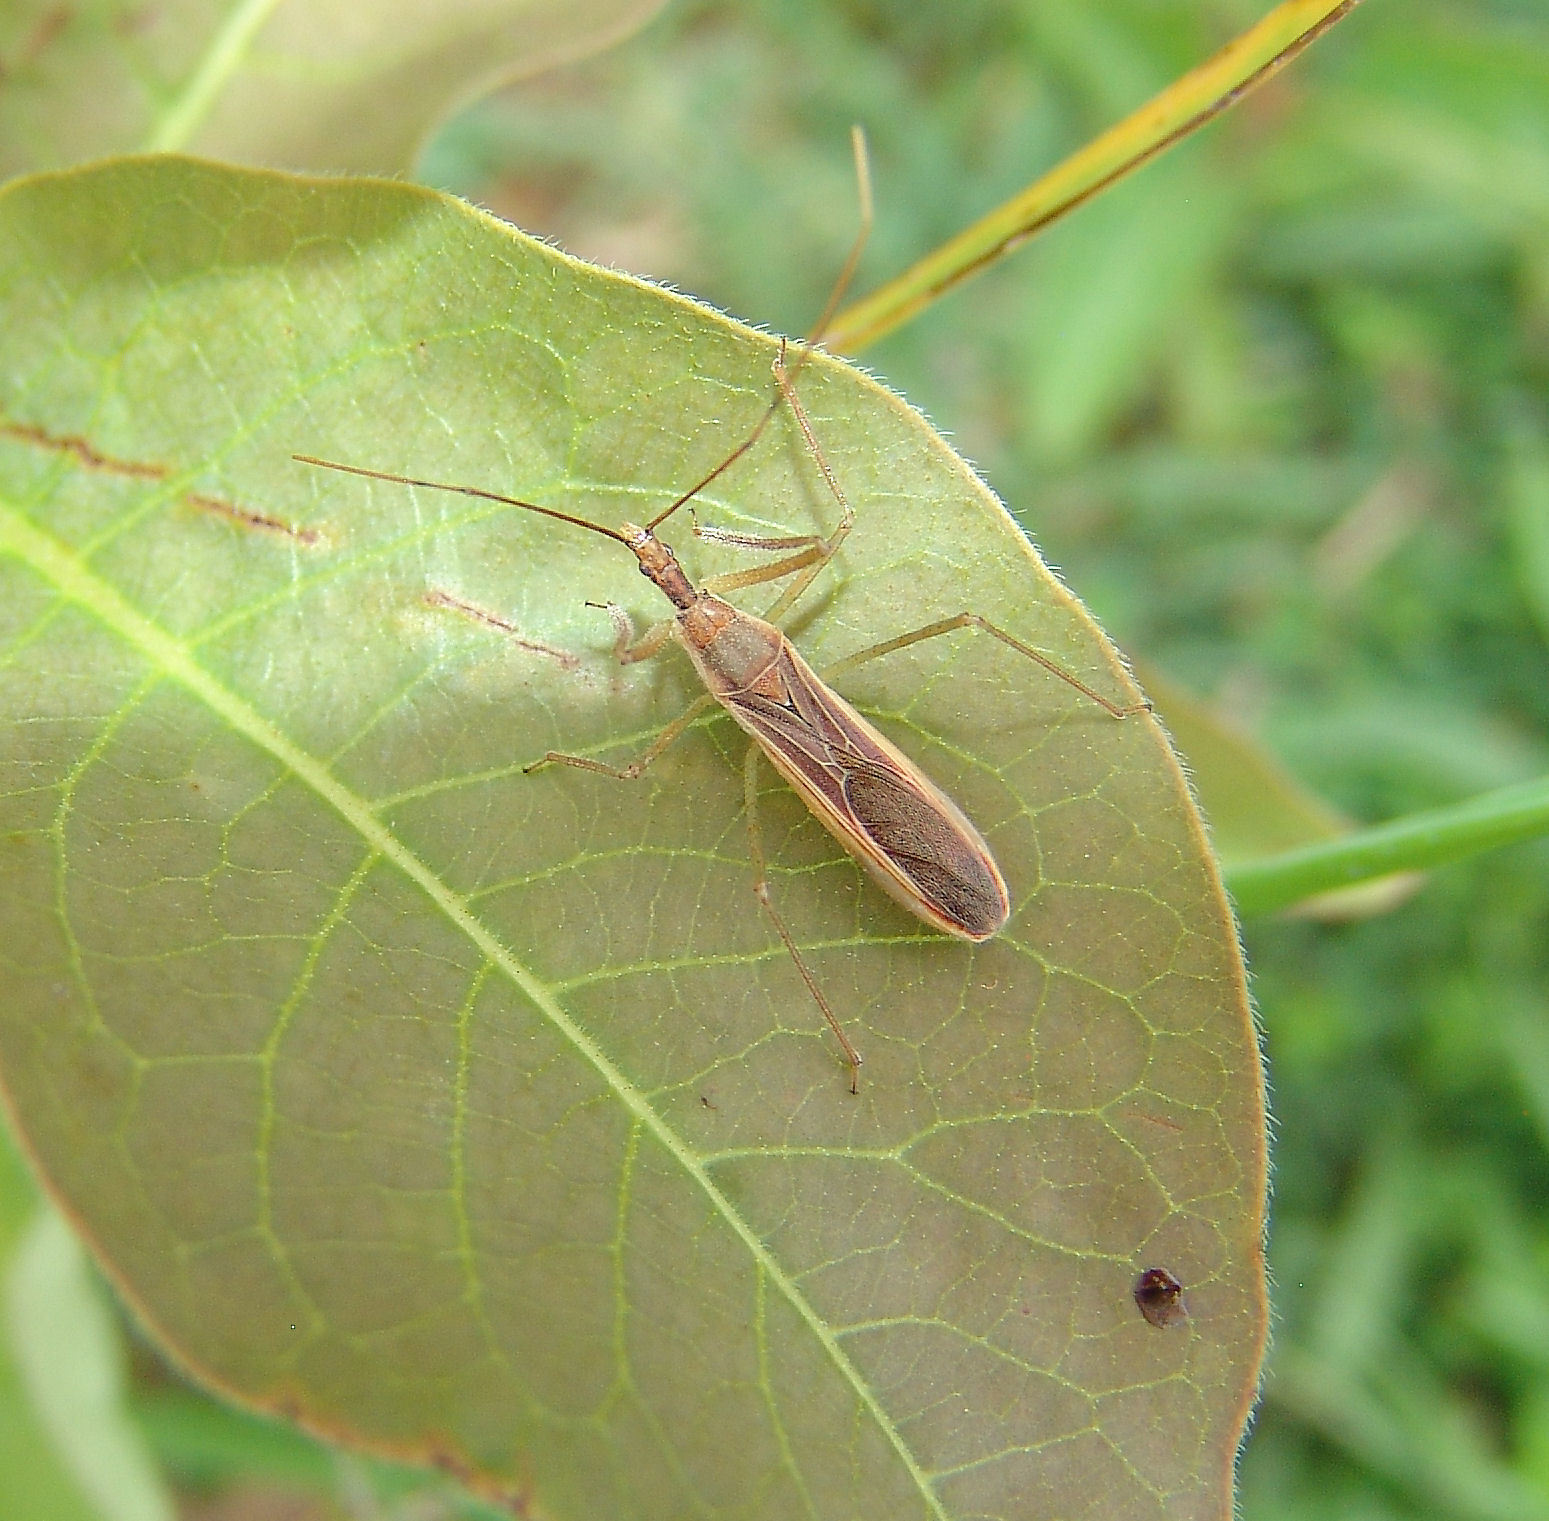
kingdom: Animalia
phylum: Arthropoda
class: Insecta
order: Hemiptera
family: Reduviidae
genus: Zelus
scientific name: Zelus cervicalis
